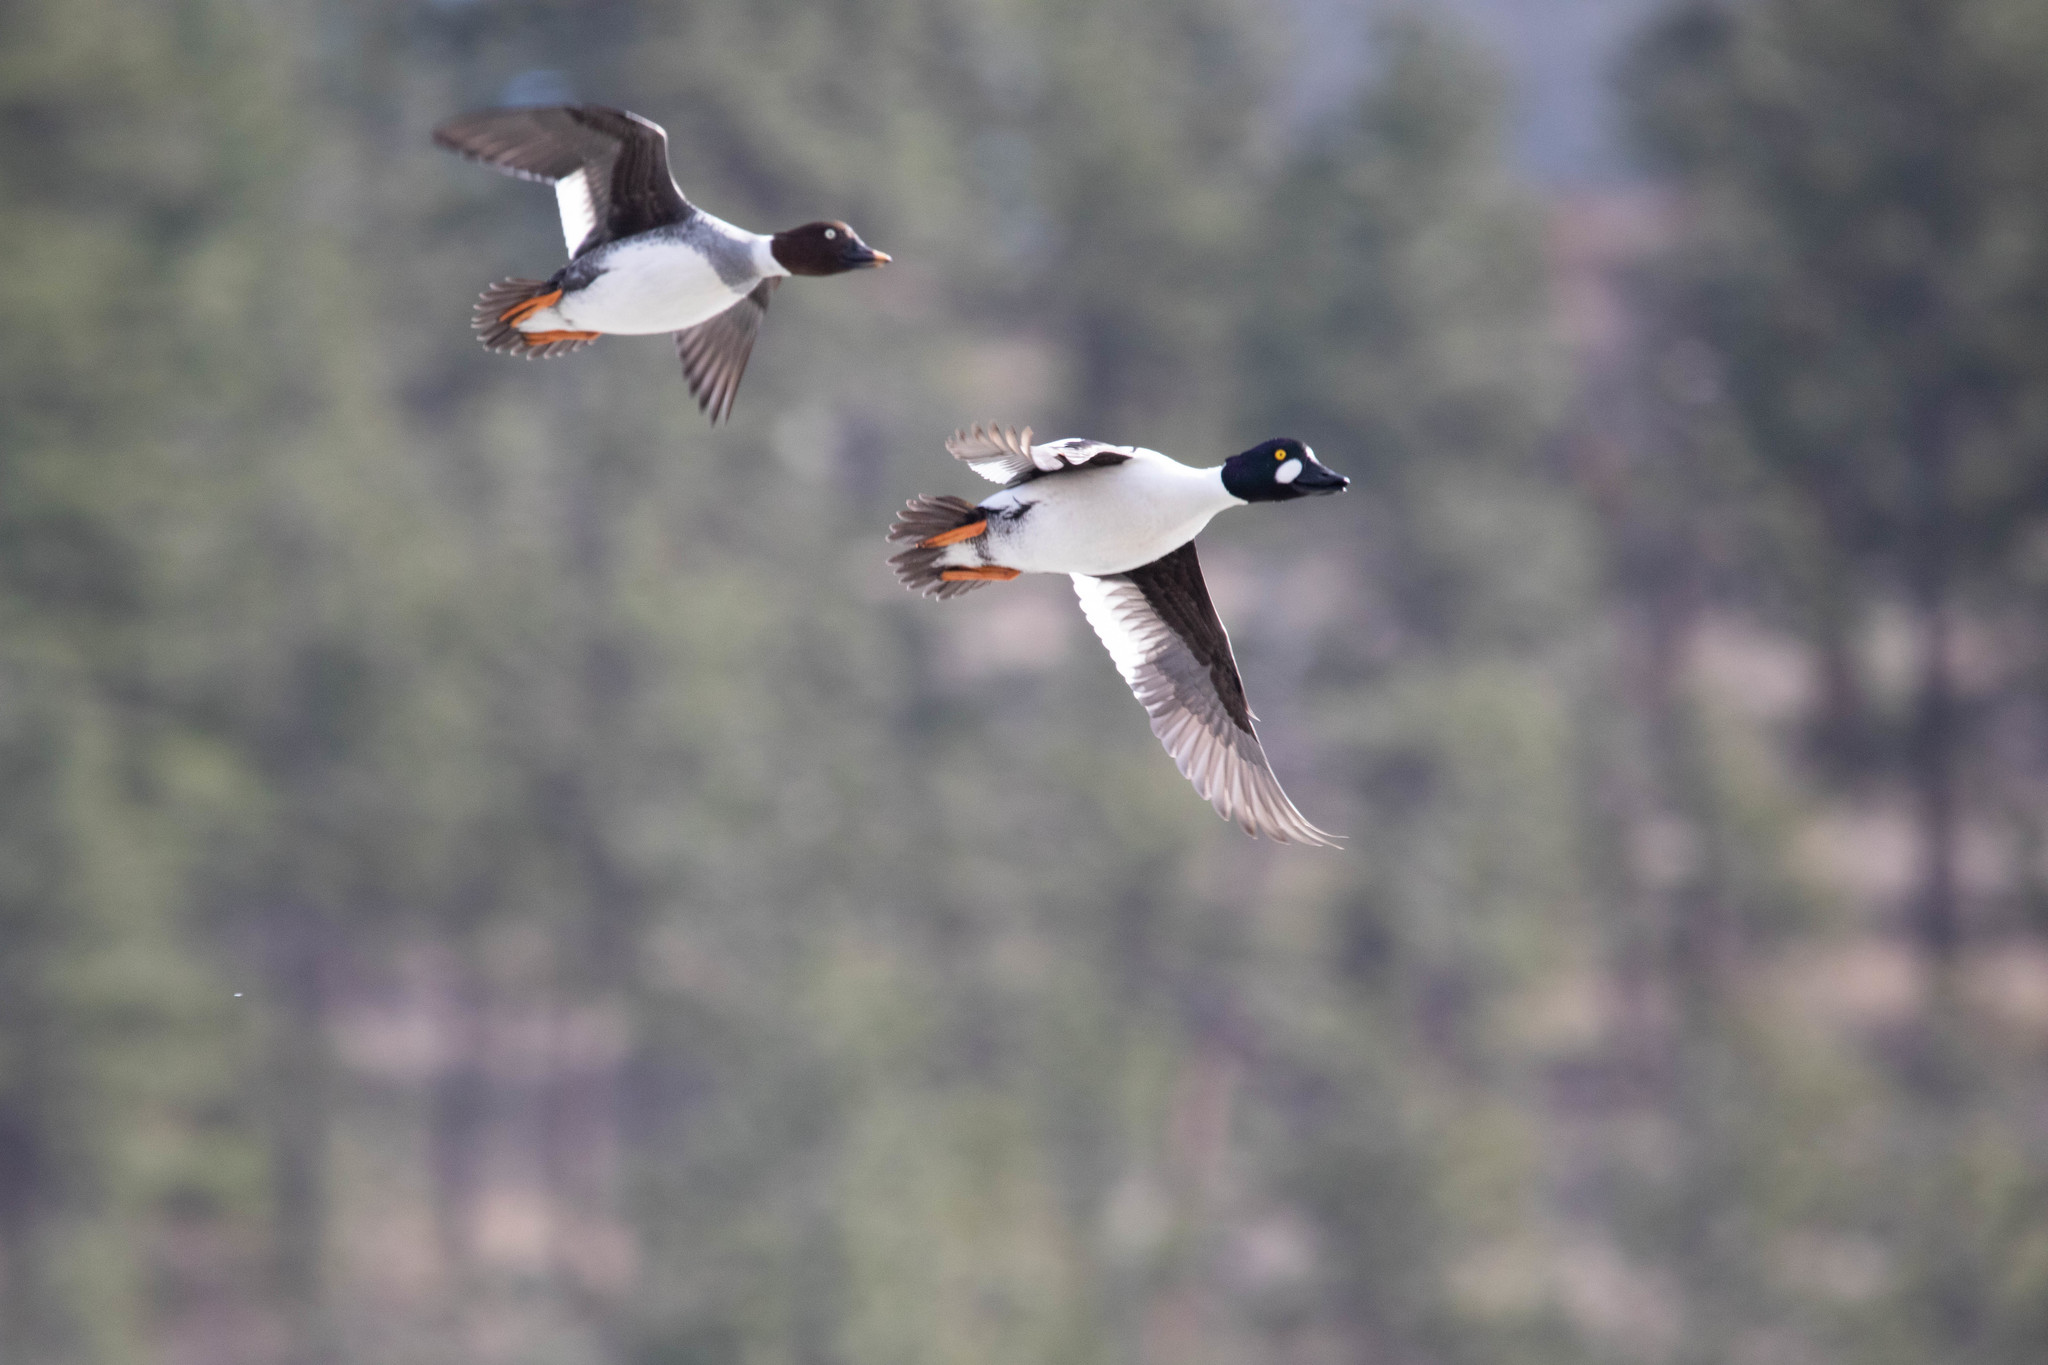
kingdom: Animalia
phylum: Chordata
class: Aves
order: Anseriformes
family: Anatidae
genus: Bucephala
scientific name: Bucephala clangula
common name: Common goldeneye
